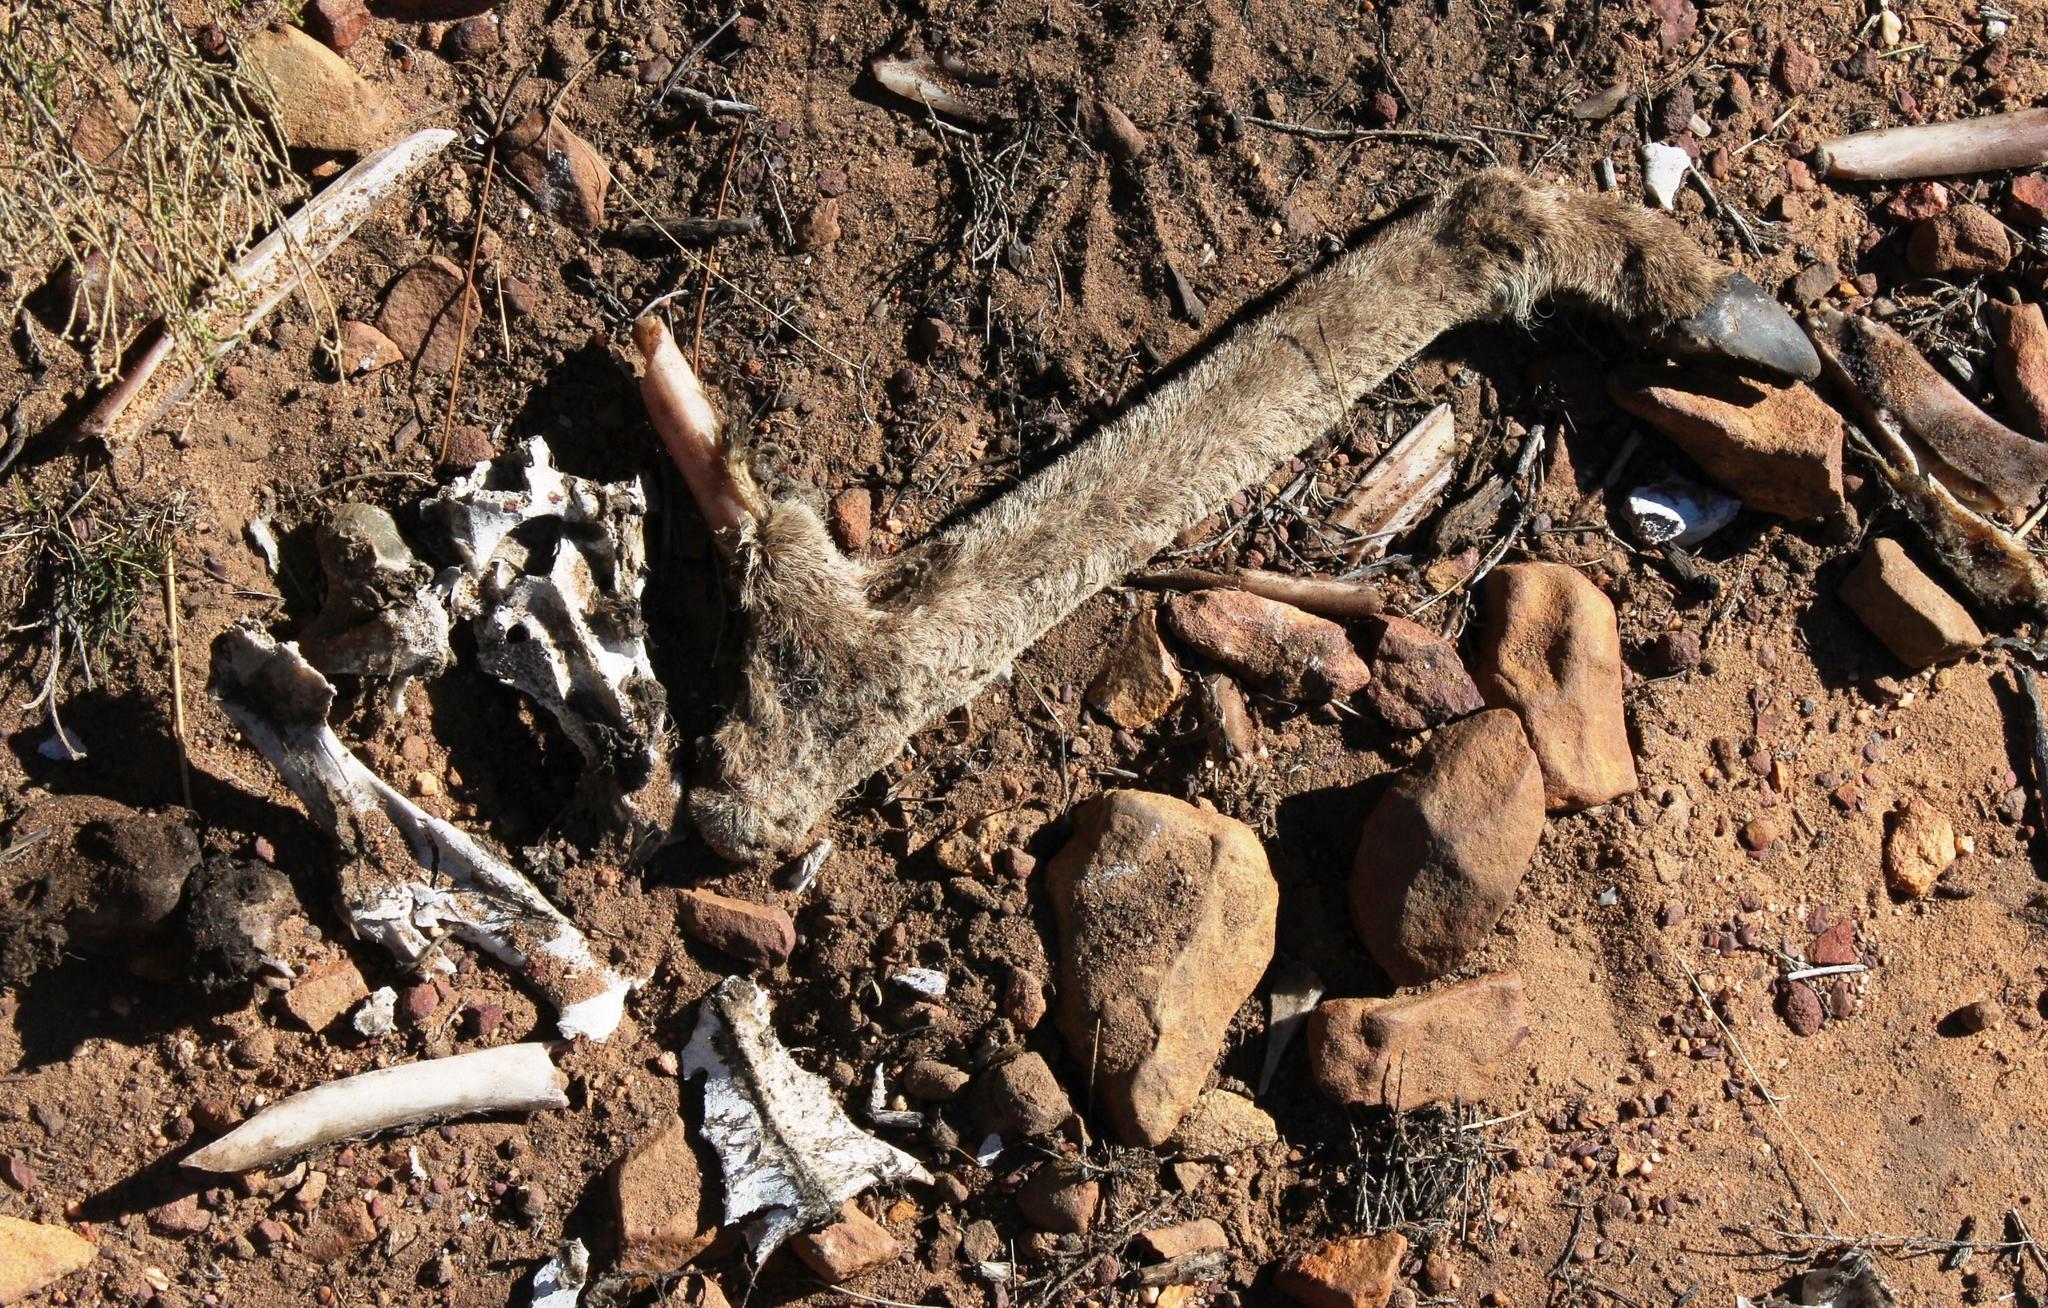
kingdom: Animalia
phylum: Chordata
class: Mammalia
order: Artiodactyla
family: Bovidae
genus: Pelea
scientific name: Pelea capreolus
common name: Common rhebok
